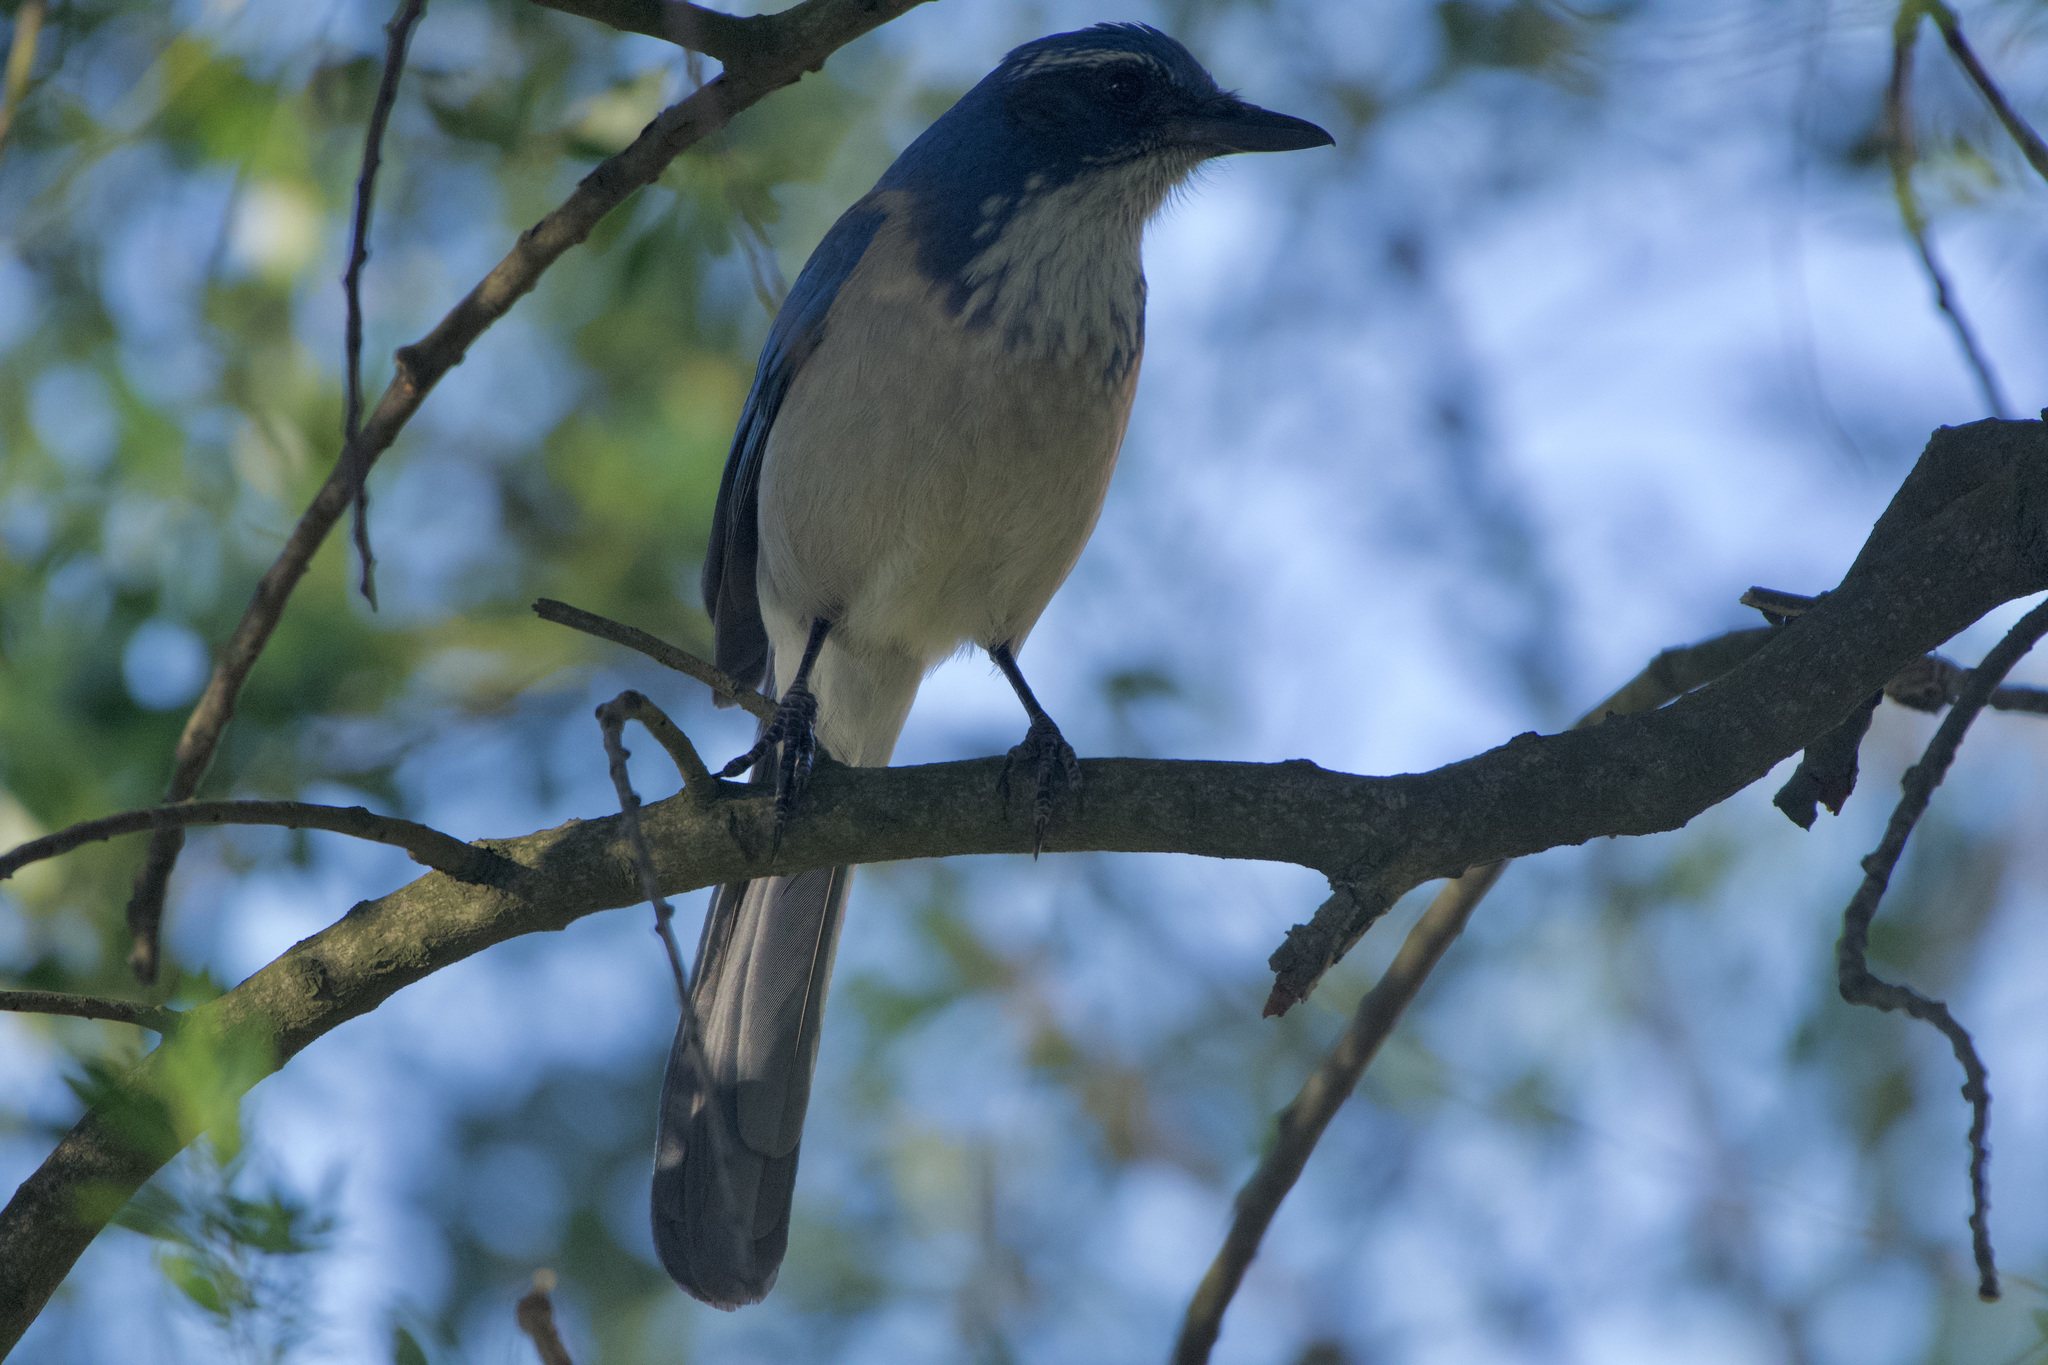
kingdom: Animalia
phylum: Chordata
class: Aves
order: Passeriformes
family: Corvidae
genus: Aphelocoma
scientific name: Aphelocoma californica
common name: California scrub-jay
